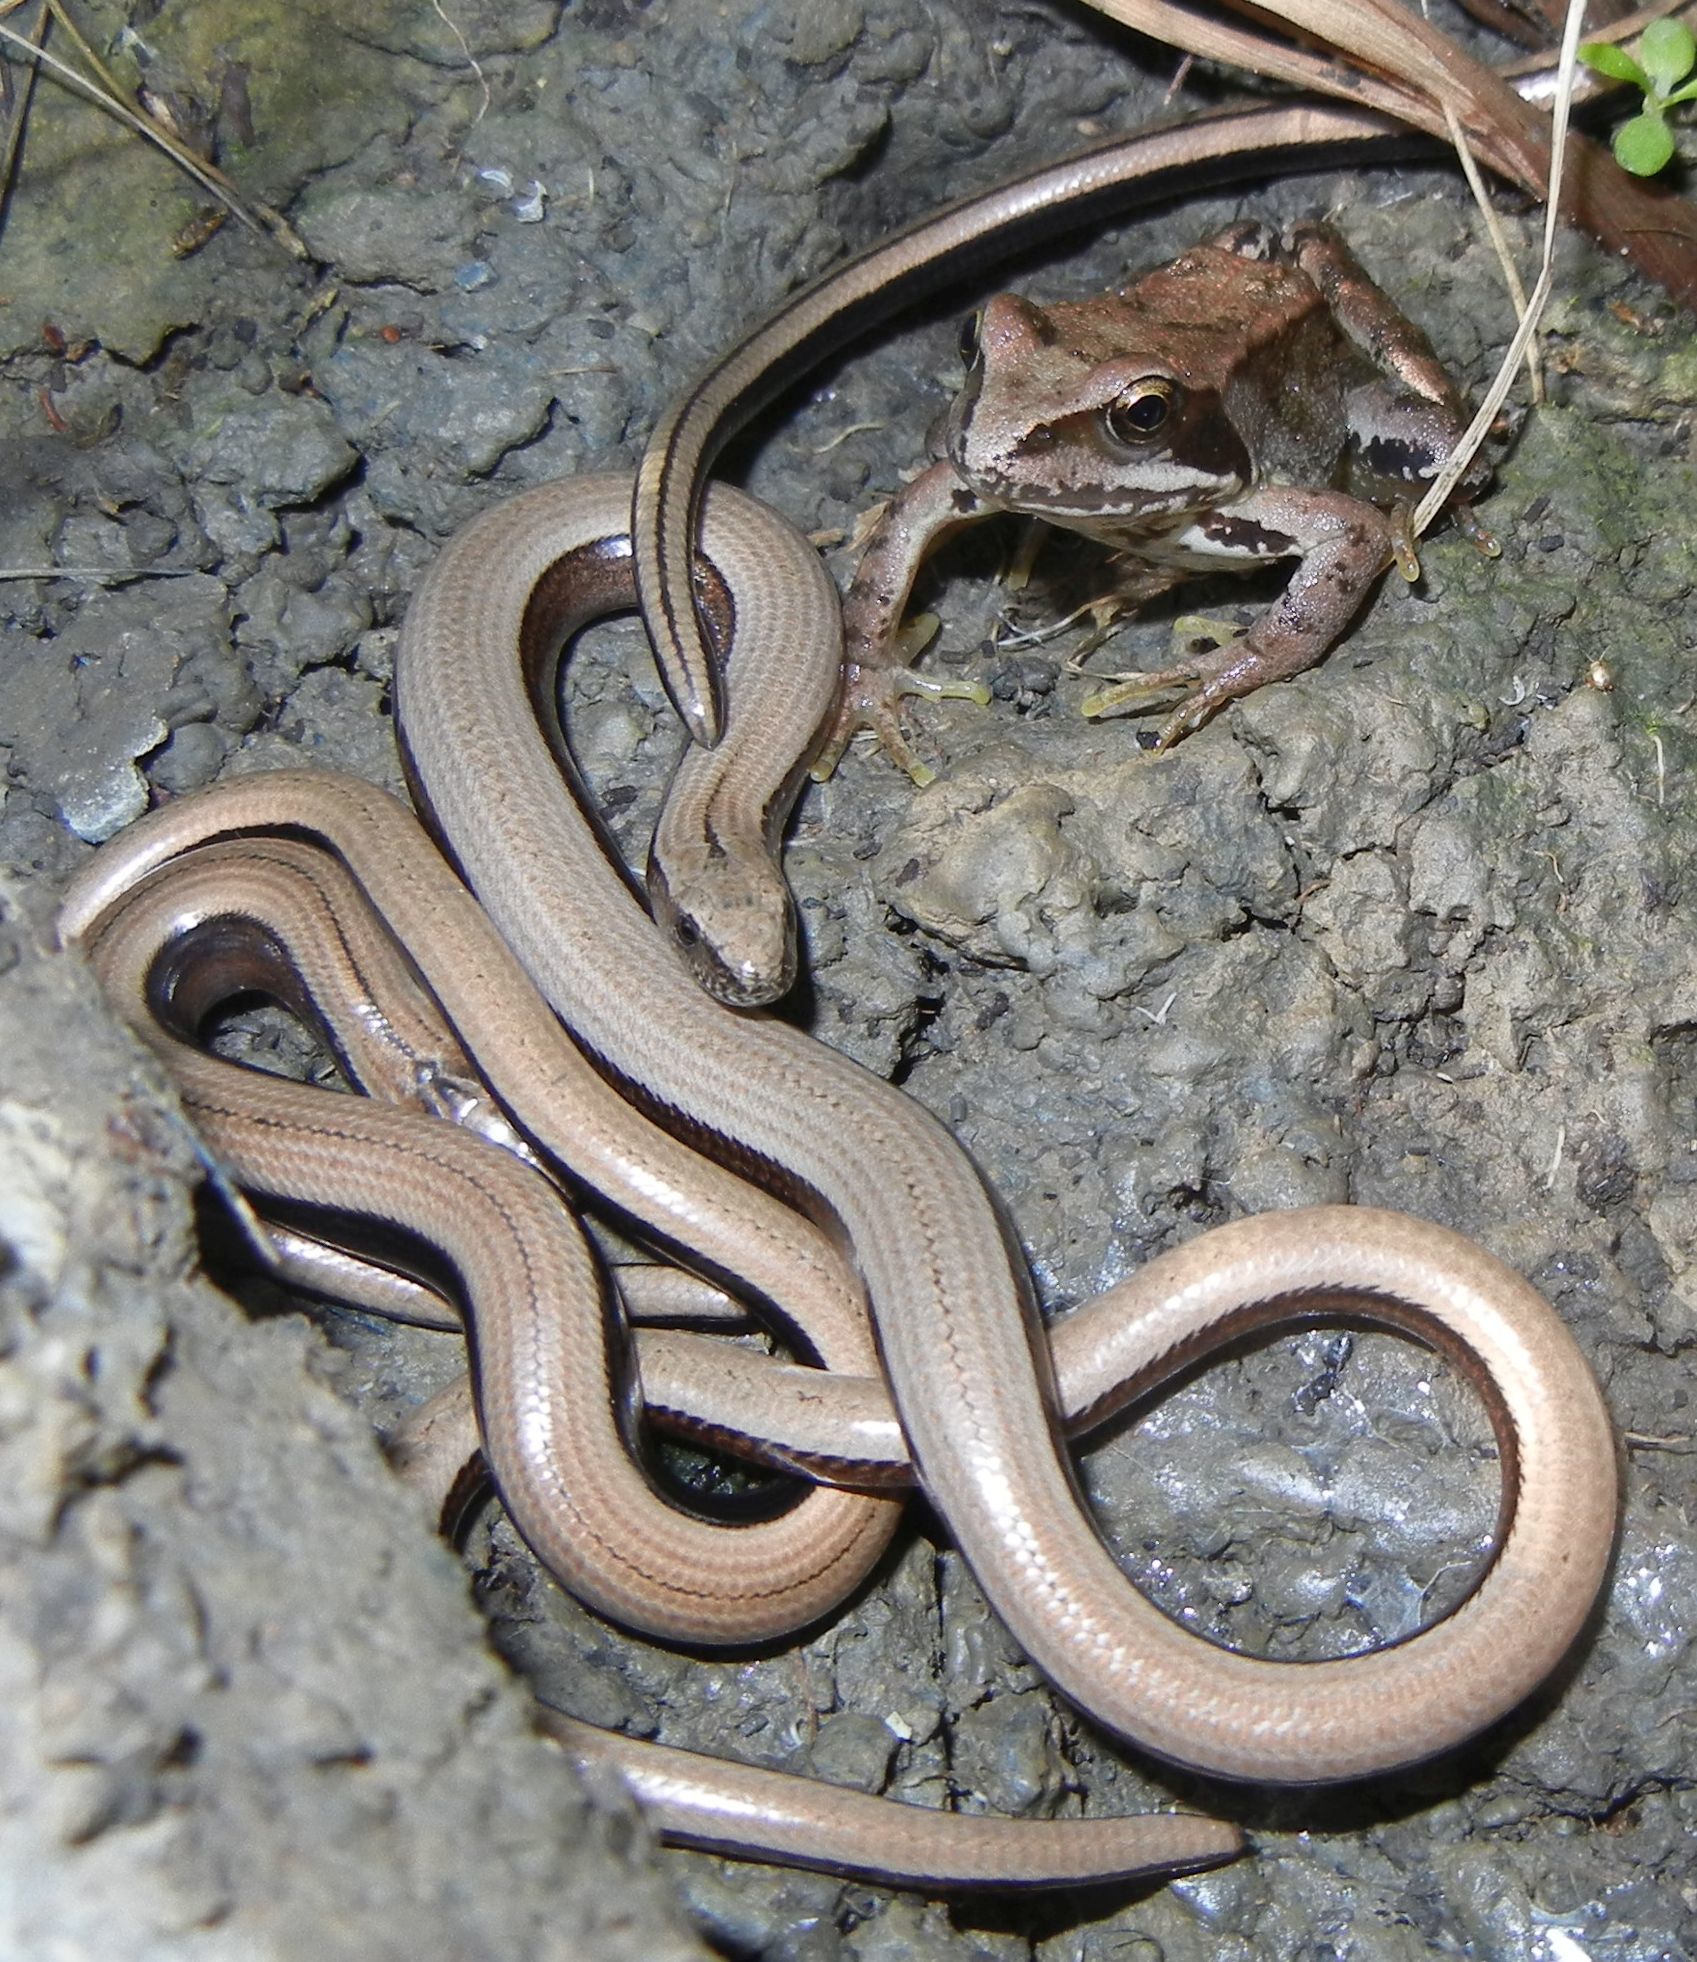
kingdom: Animalia
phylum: Chordata
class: Squamata
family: Anguidae
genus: Anguis
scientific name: Anguis fragilis
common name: Slow worm
